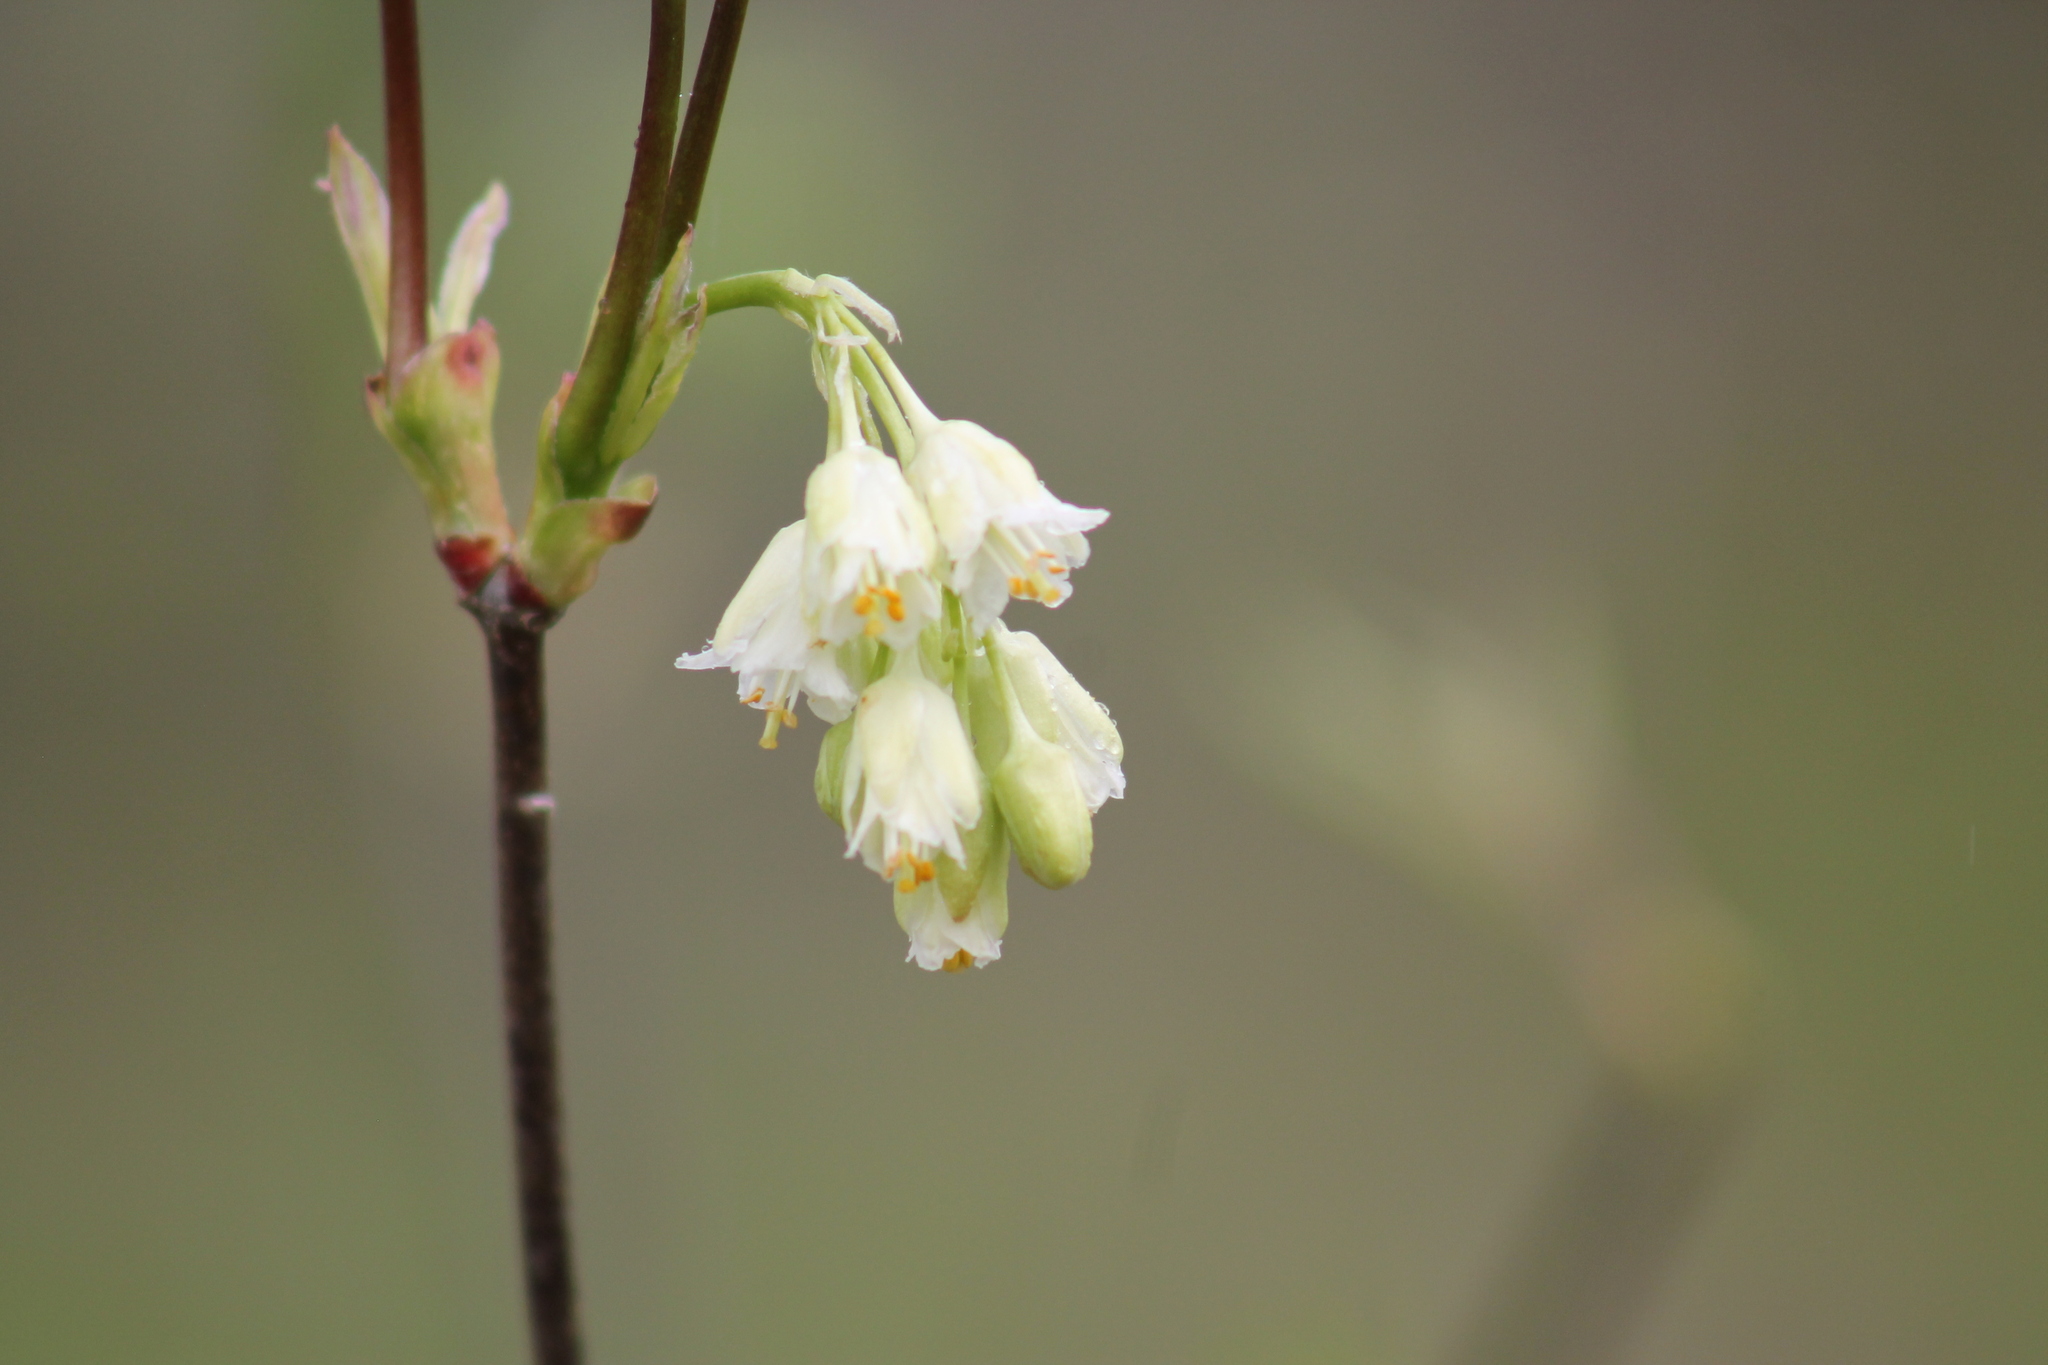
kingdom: Plantae
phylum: Tracheophyta
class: Magnoliopsida
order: Crossosomatales
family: Staphyleaceae
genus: Staphylea
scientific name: Staphylea trifolia
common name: American bladdernut
